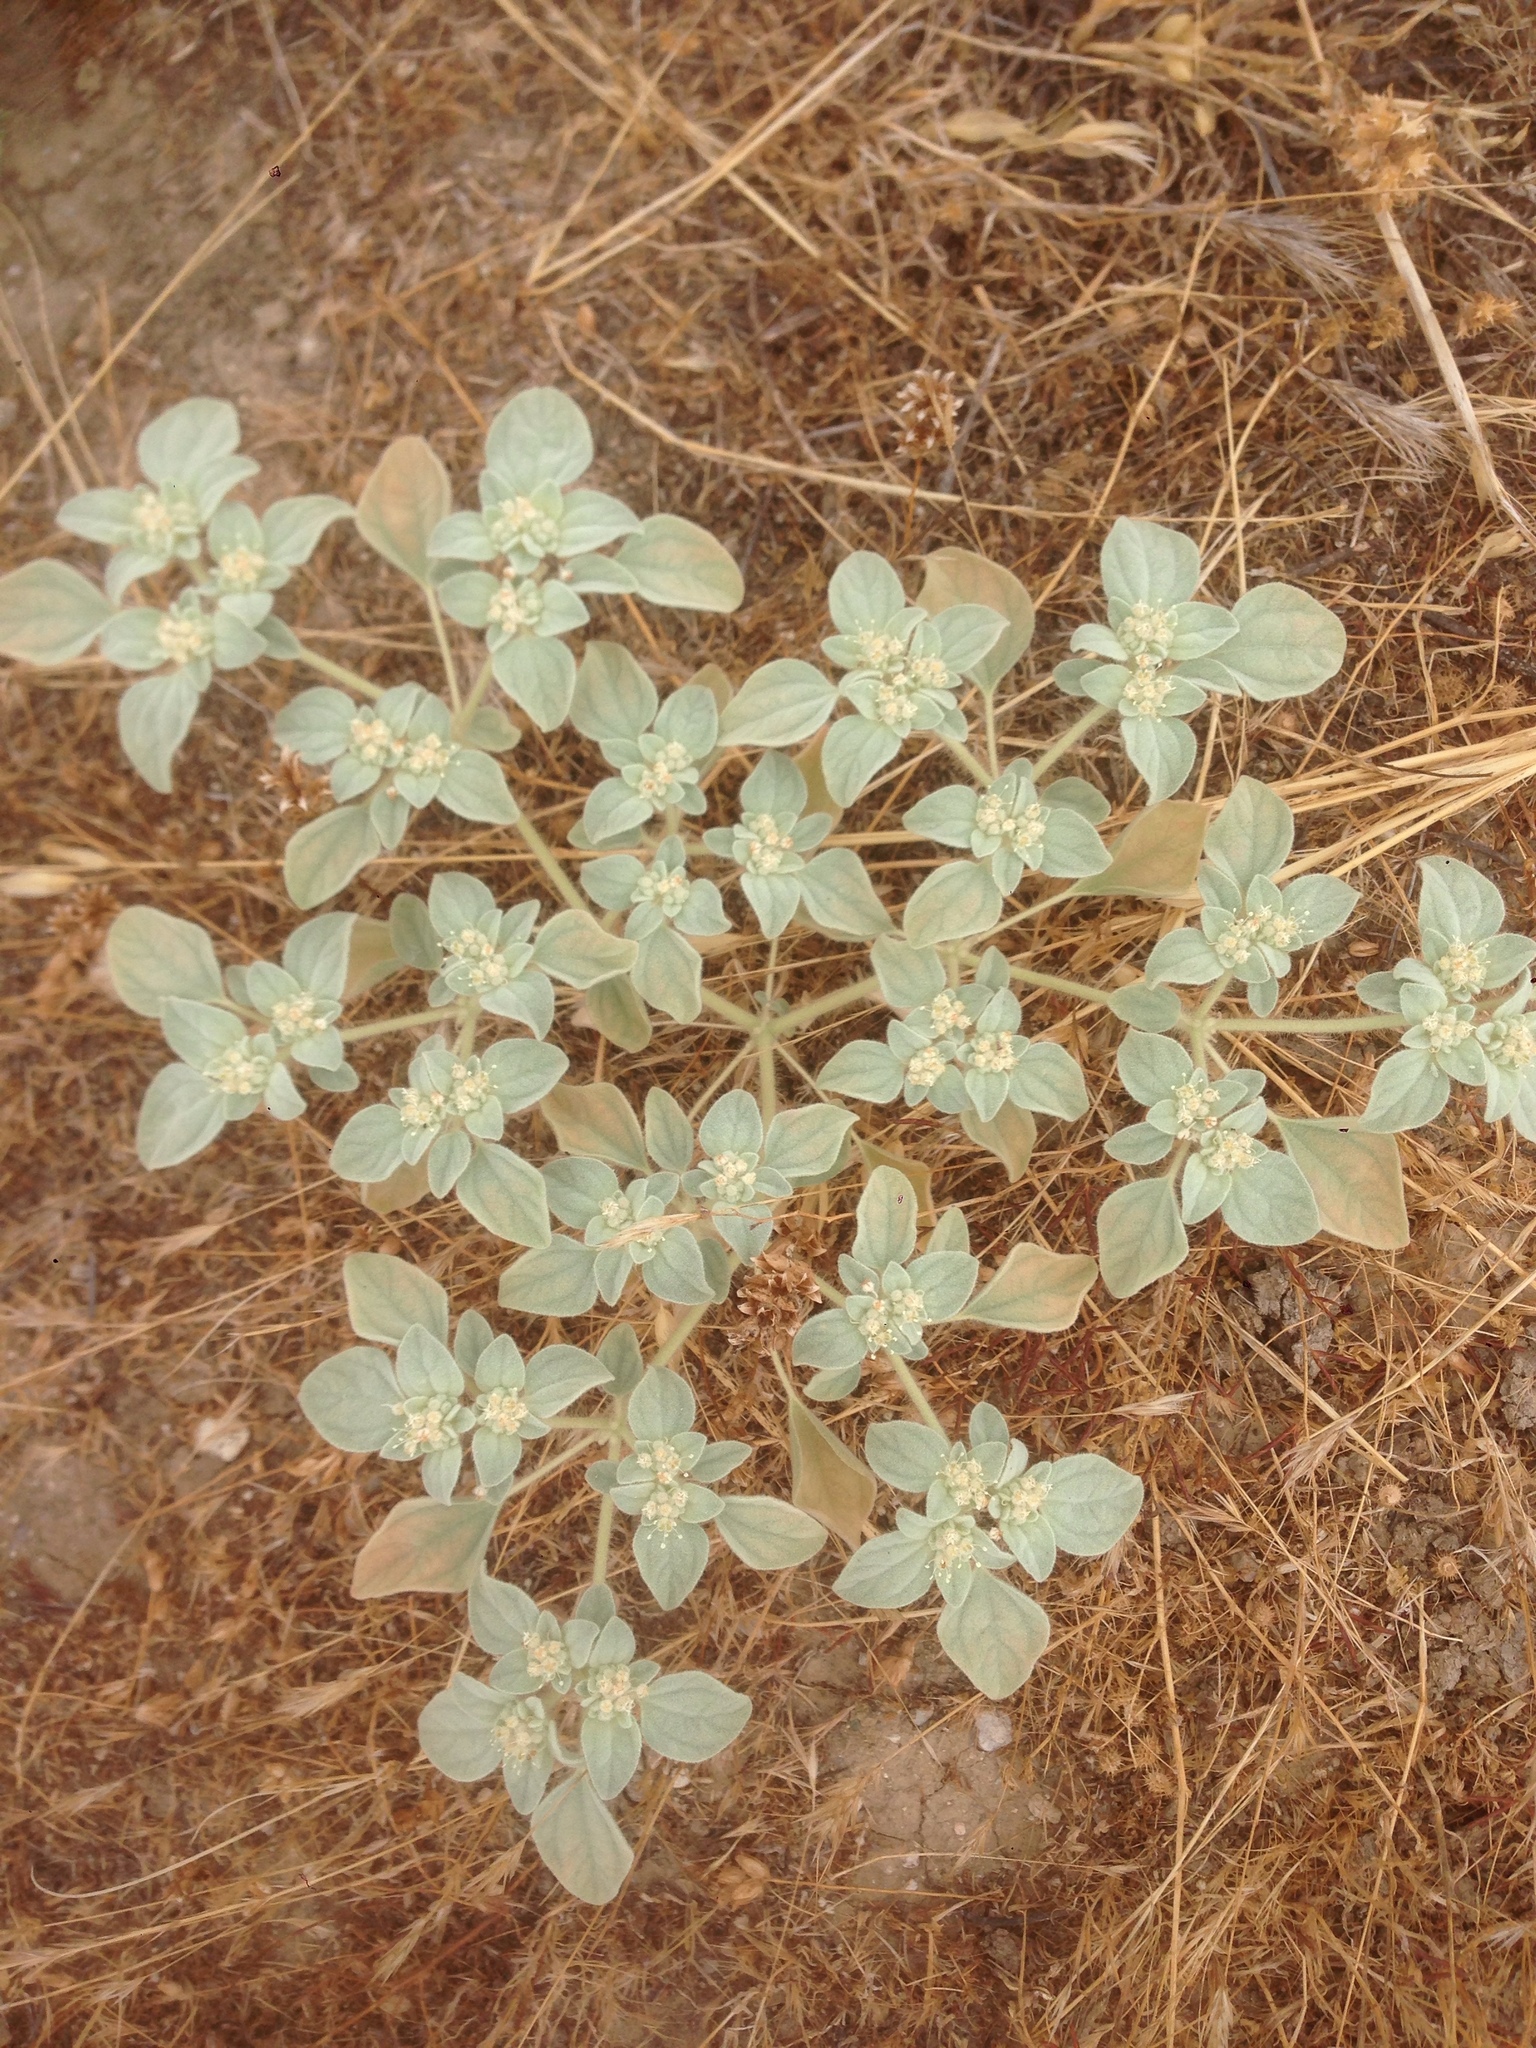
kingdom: Plantae
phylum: Tracheophyta
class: Magnoliopsida
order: Malpighiales
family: Euphorbiaceae
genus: Croton
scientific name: Croton setiger
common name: Dove weed
